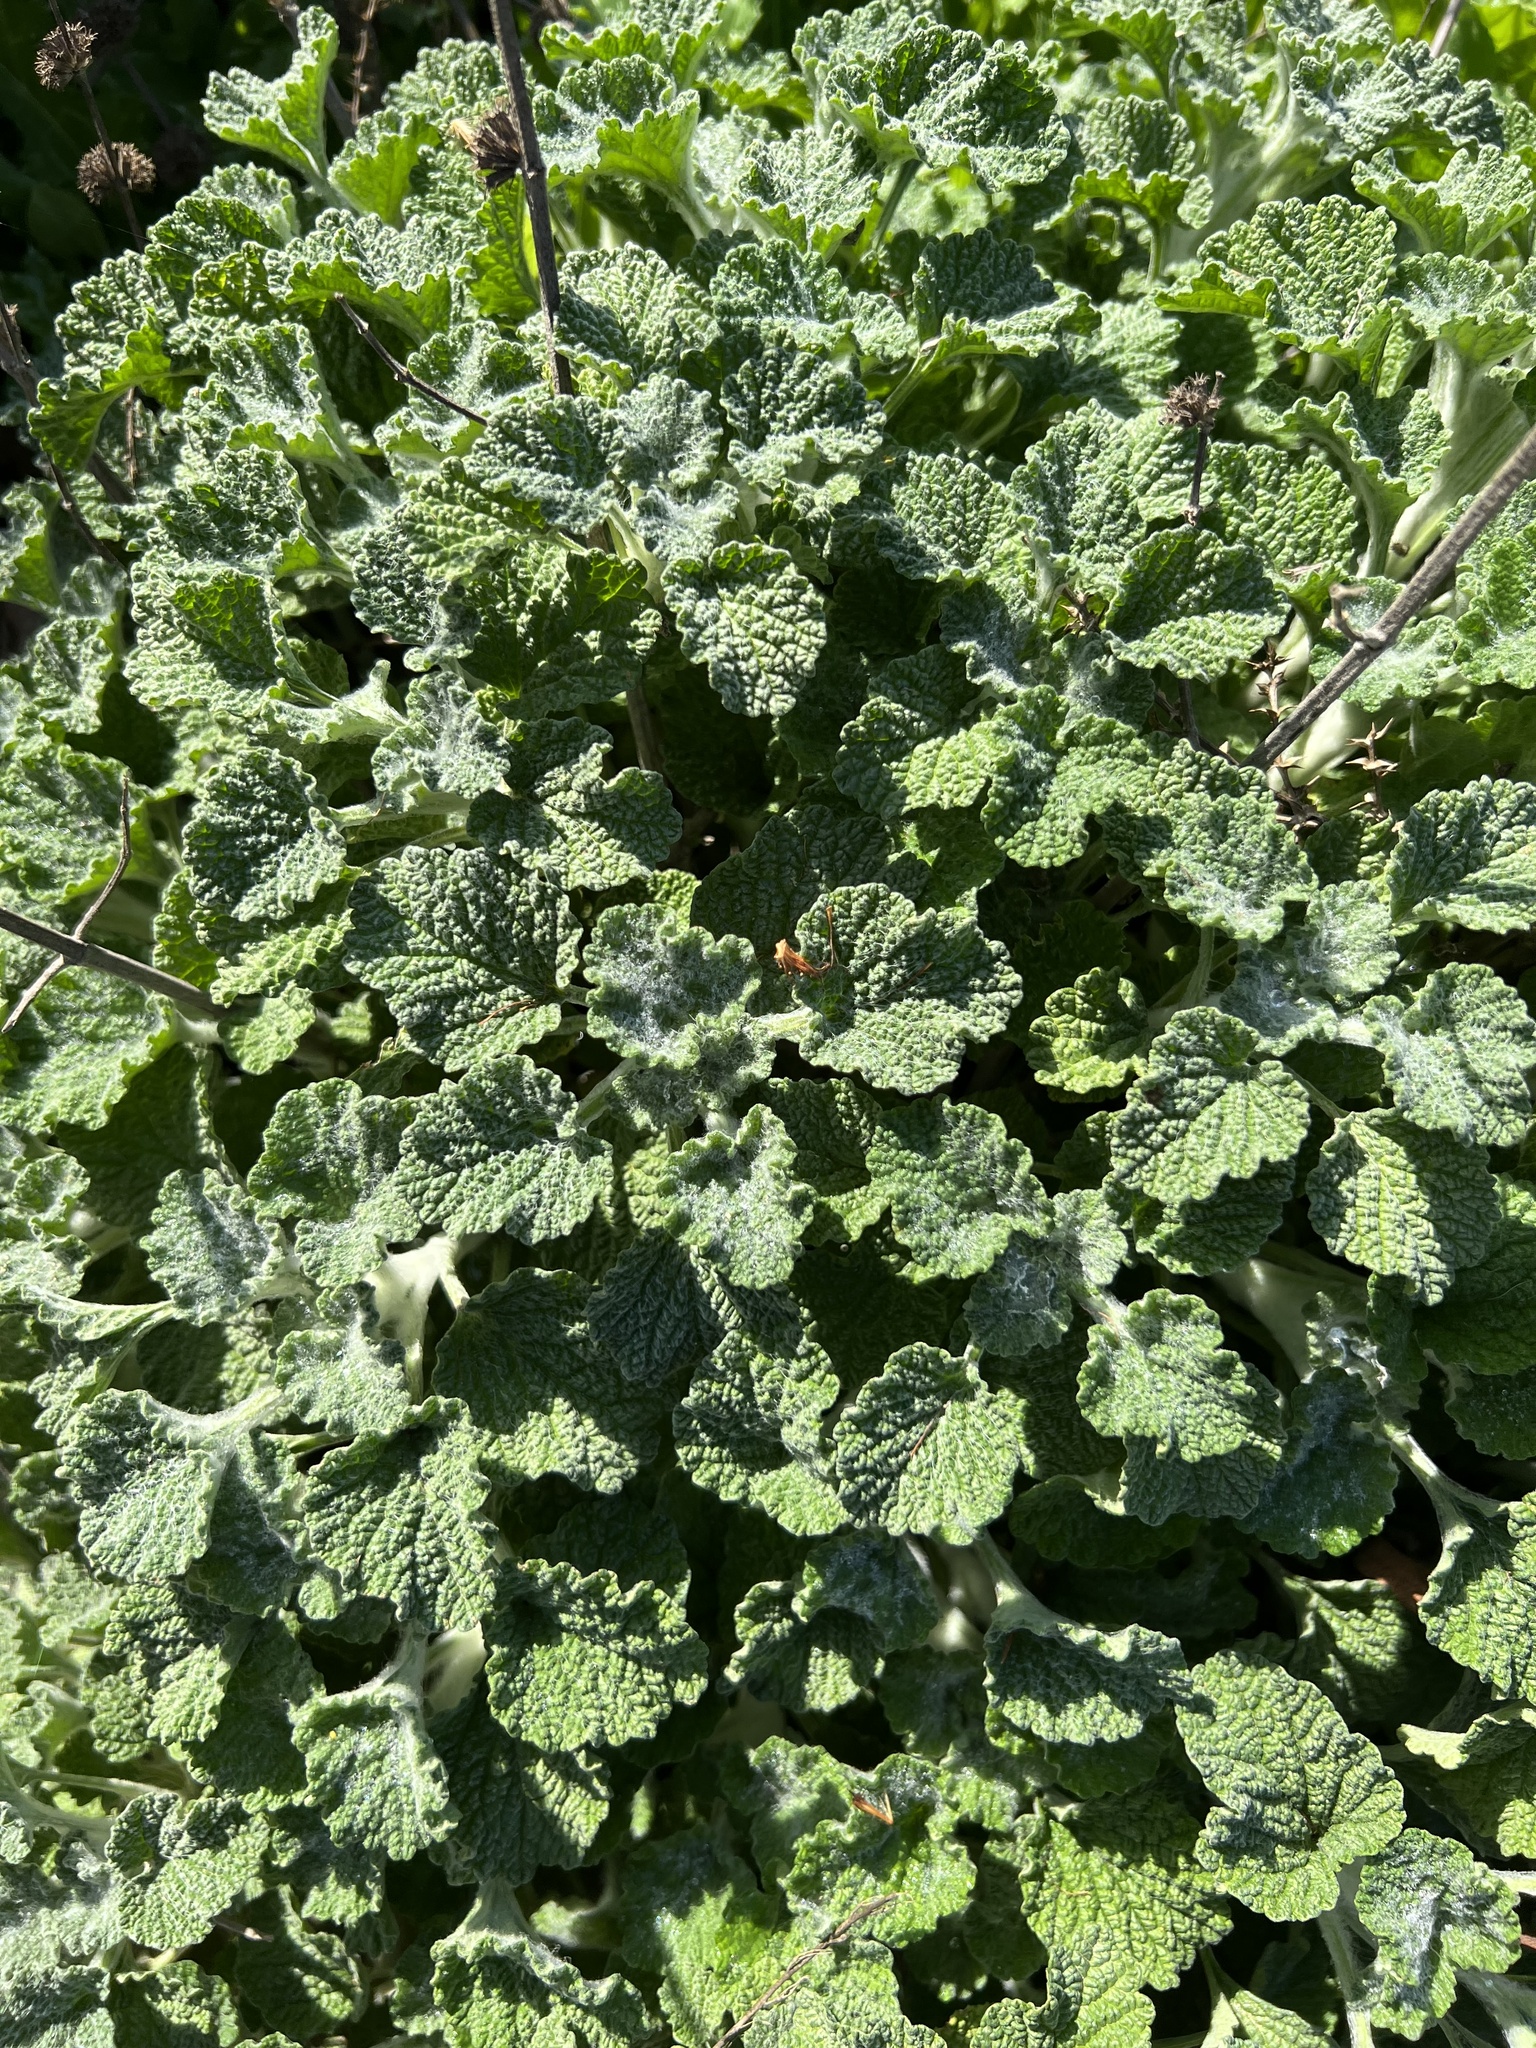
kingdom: Plantae
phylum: Tracheophyta
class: Magnoliopsida
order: Lamiales
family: Lamiaceae
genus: Marrubium
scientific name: Marrubium vulgare
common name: Horehound
